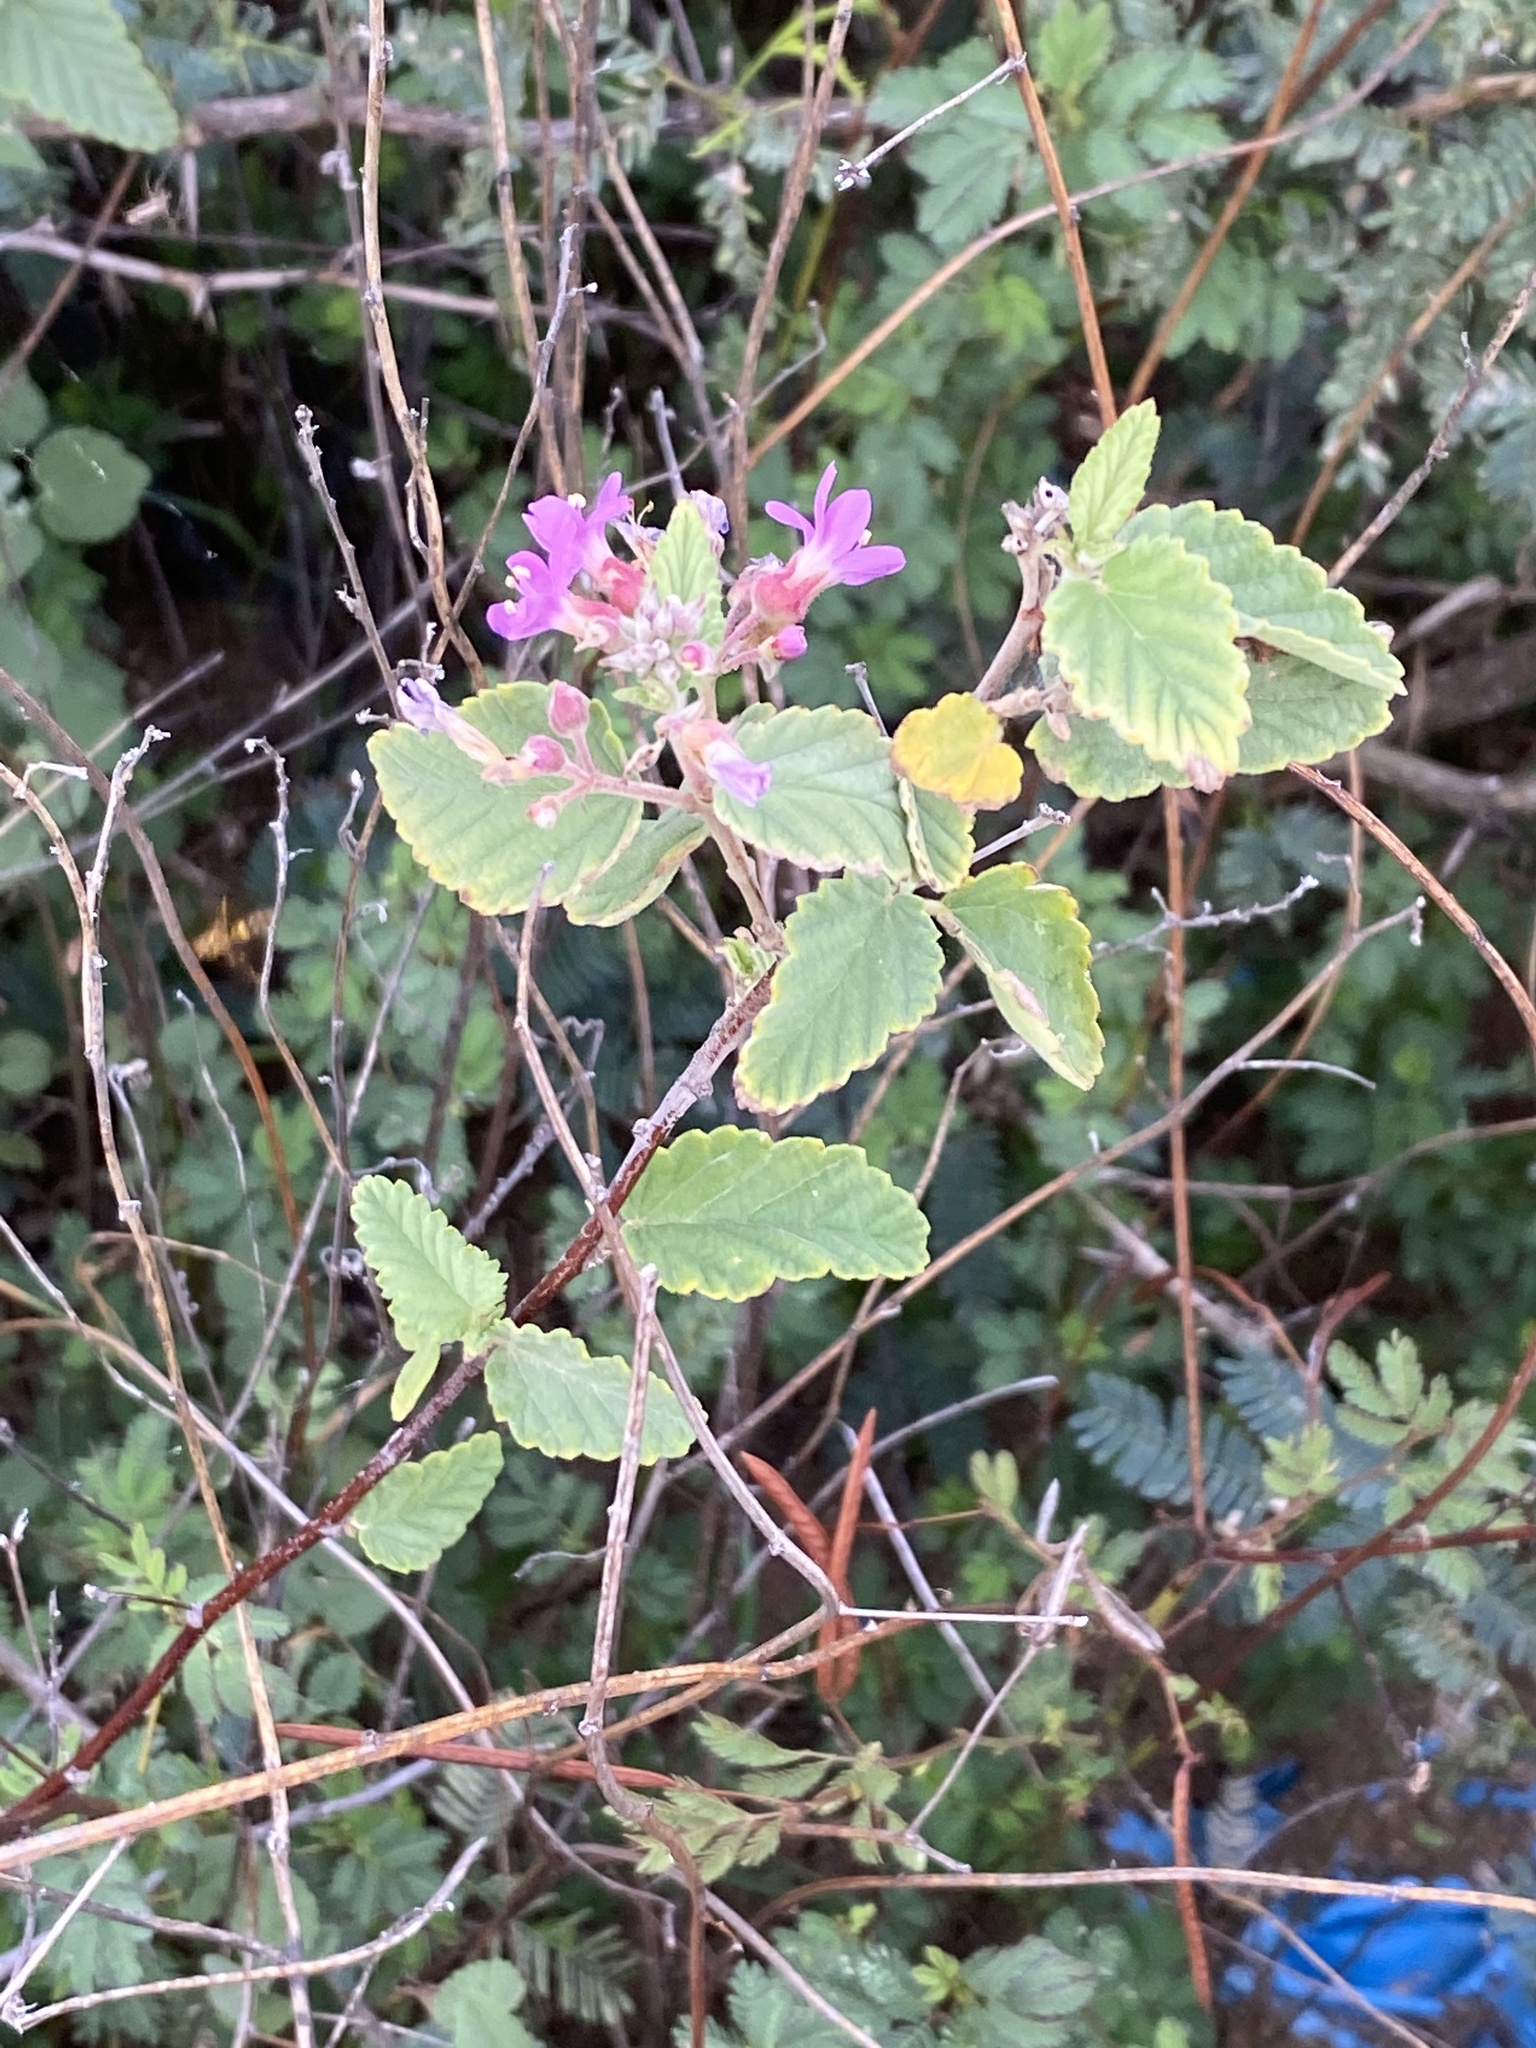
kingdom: Plantae
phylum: Tracheophyta
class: Magnoliopsida
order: Malvales
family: Malvaceae
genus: Melochia
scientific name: Melochia tomentosa
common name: Black torch
